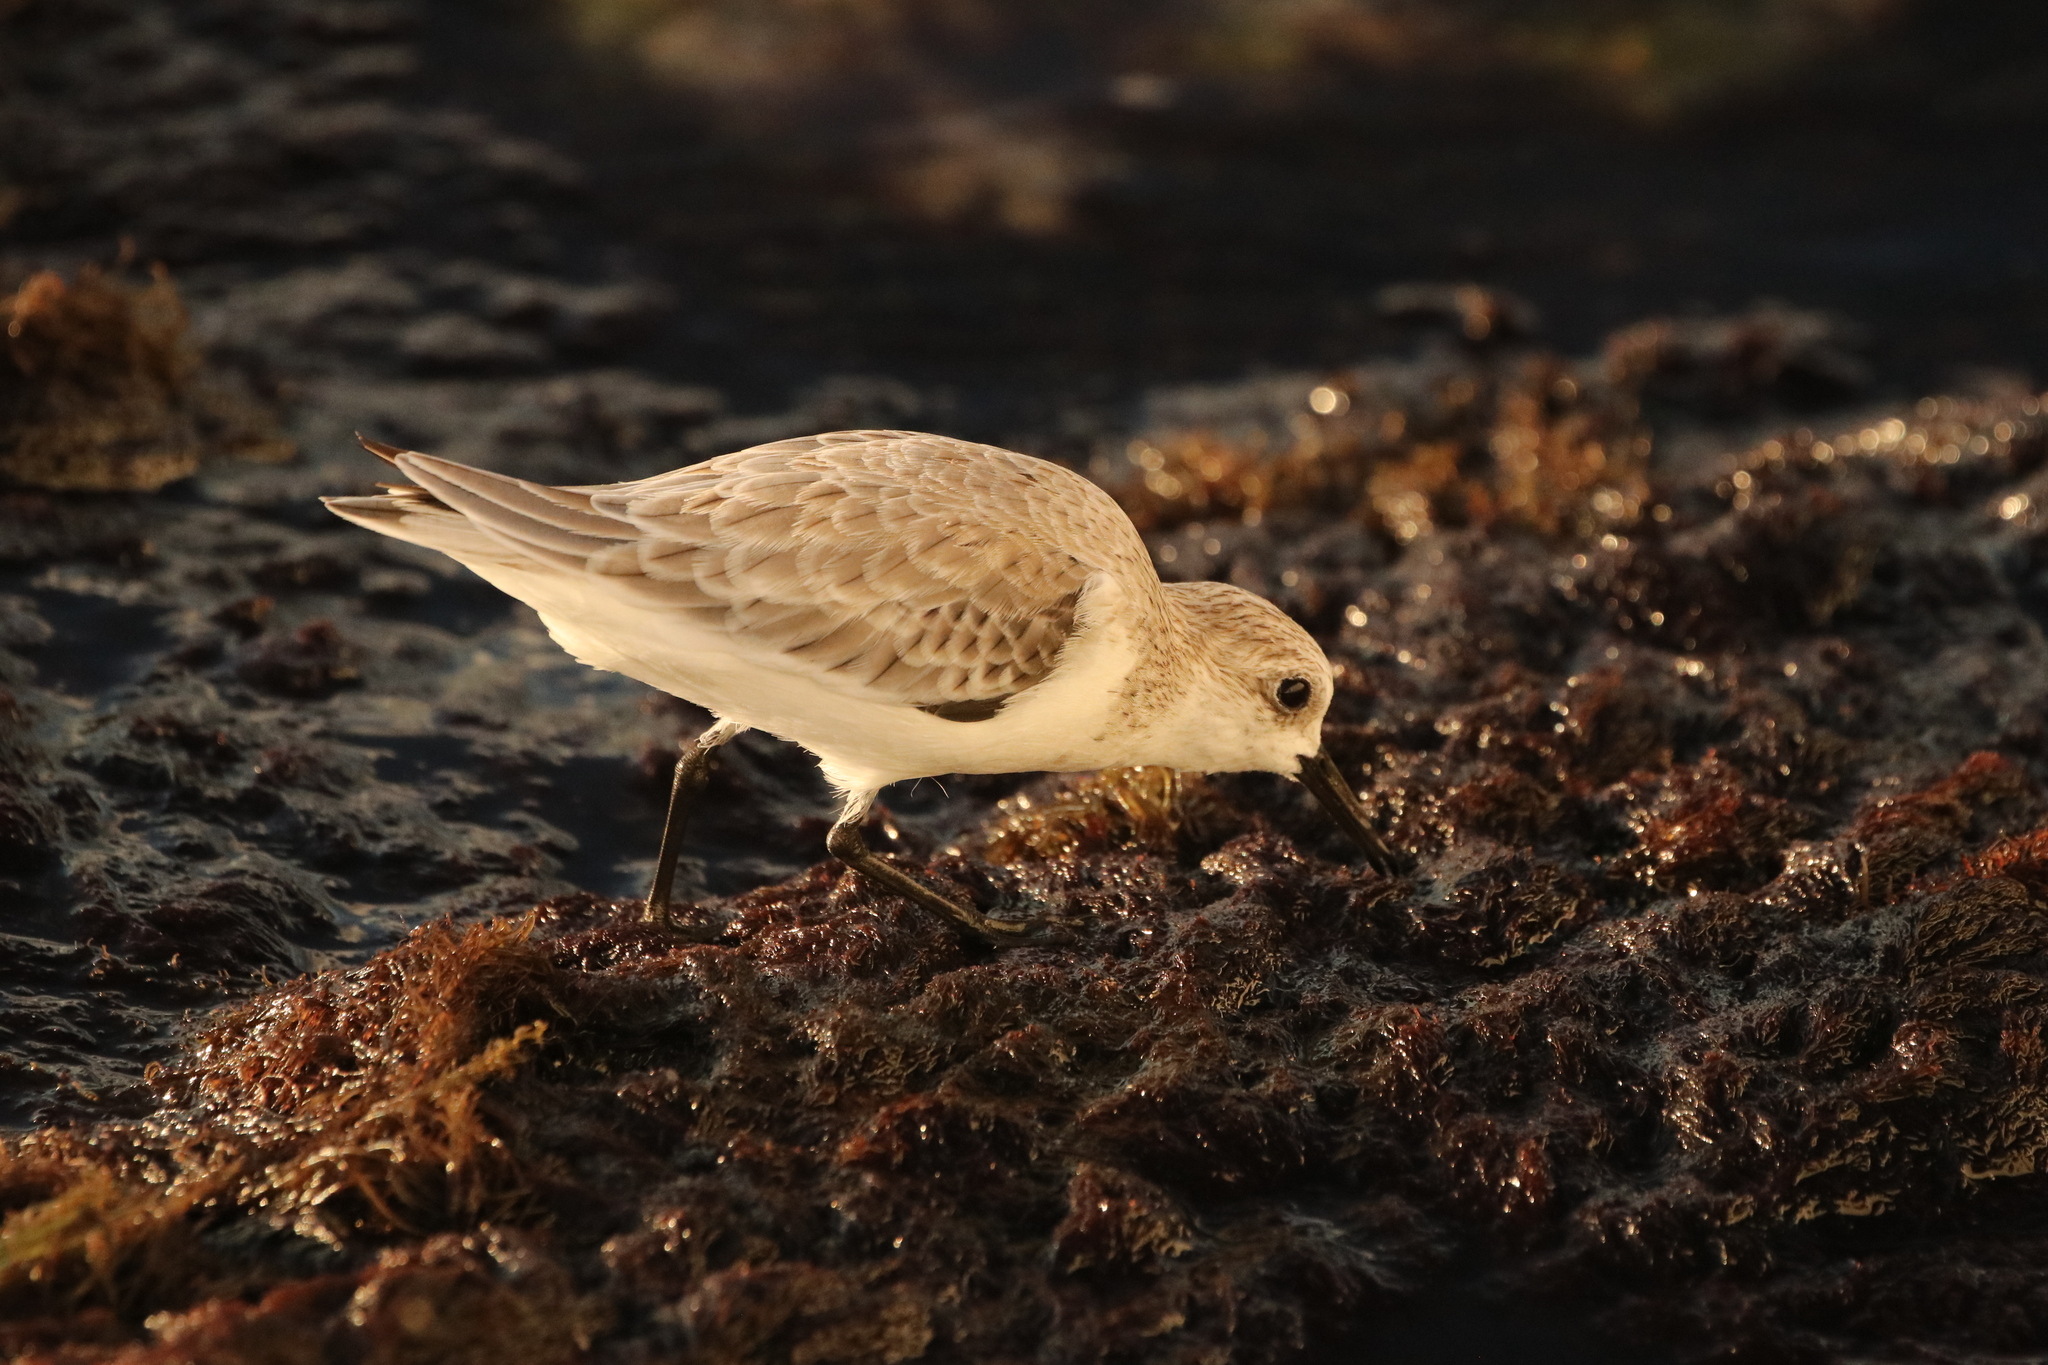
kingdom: Animalia
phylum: Chordata
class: Aves
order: Charadriiformes
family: Scolopacidae
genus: Calidris
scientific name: Calidris alba
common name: Sanderling
